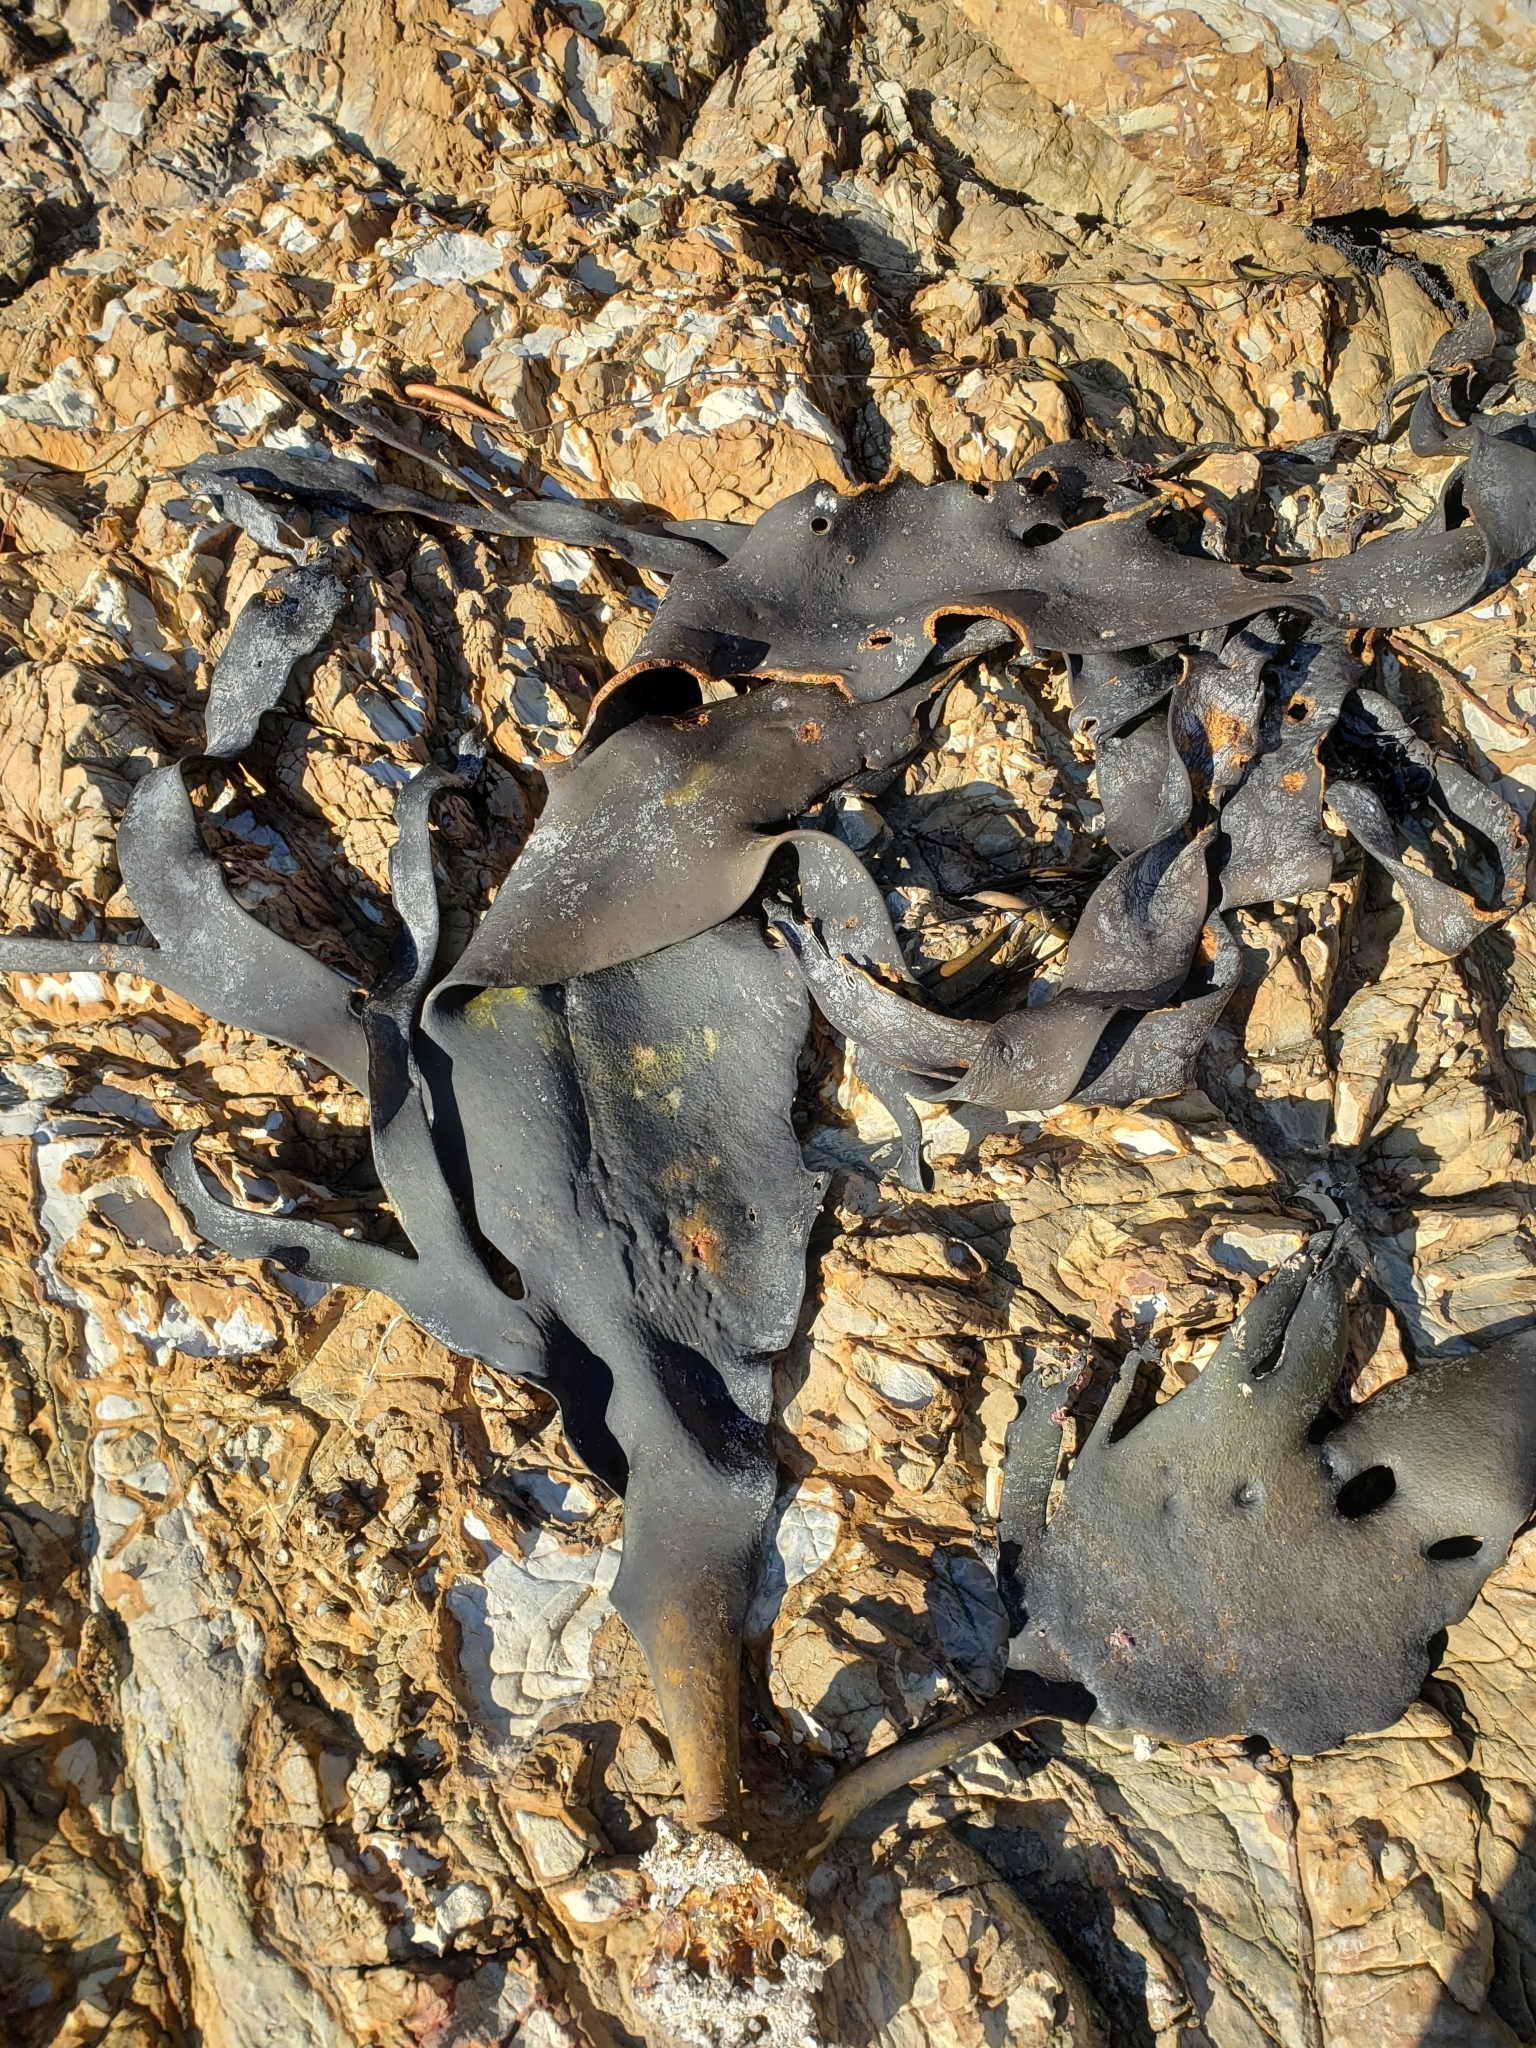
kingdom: Chromista
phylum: Ochrophyta
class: Phaeophyceae
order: Fucales
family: Durvillaeaceae
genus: Durvillaea
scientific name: Durvillaea antarctica
